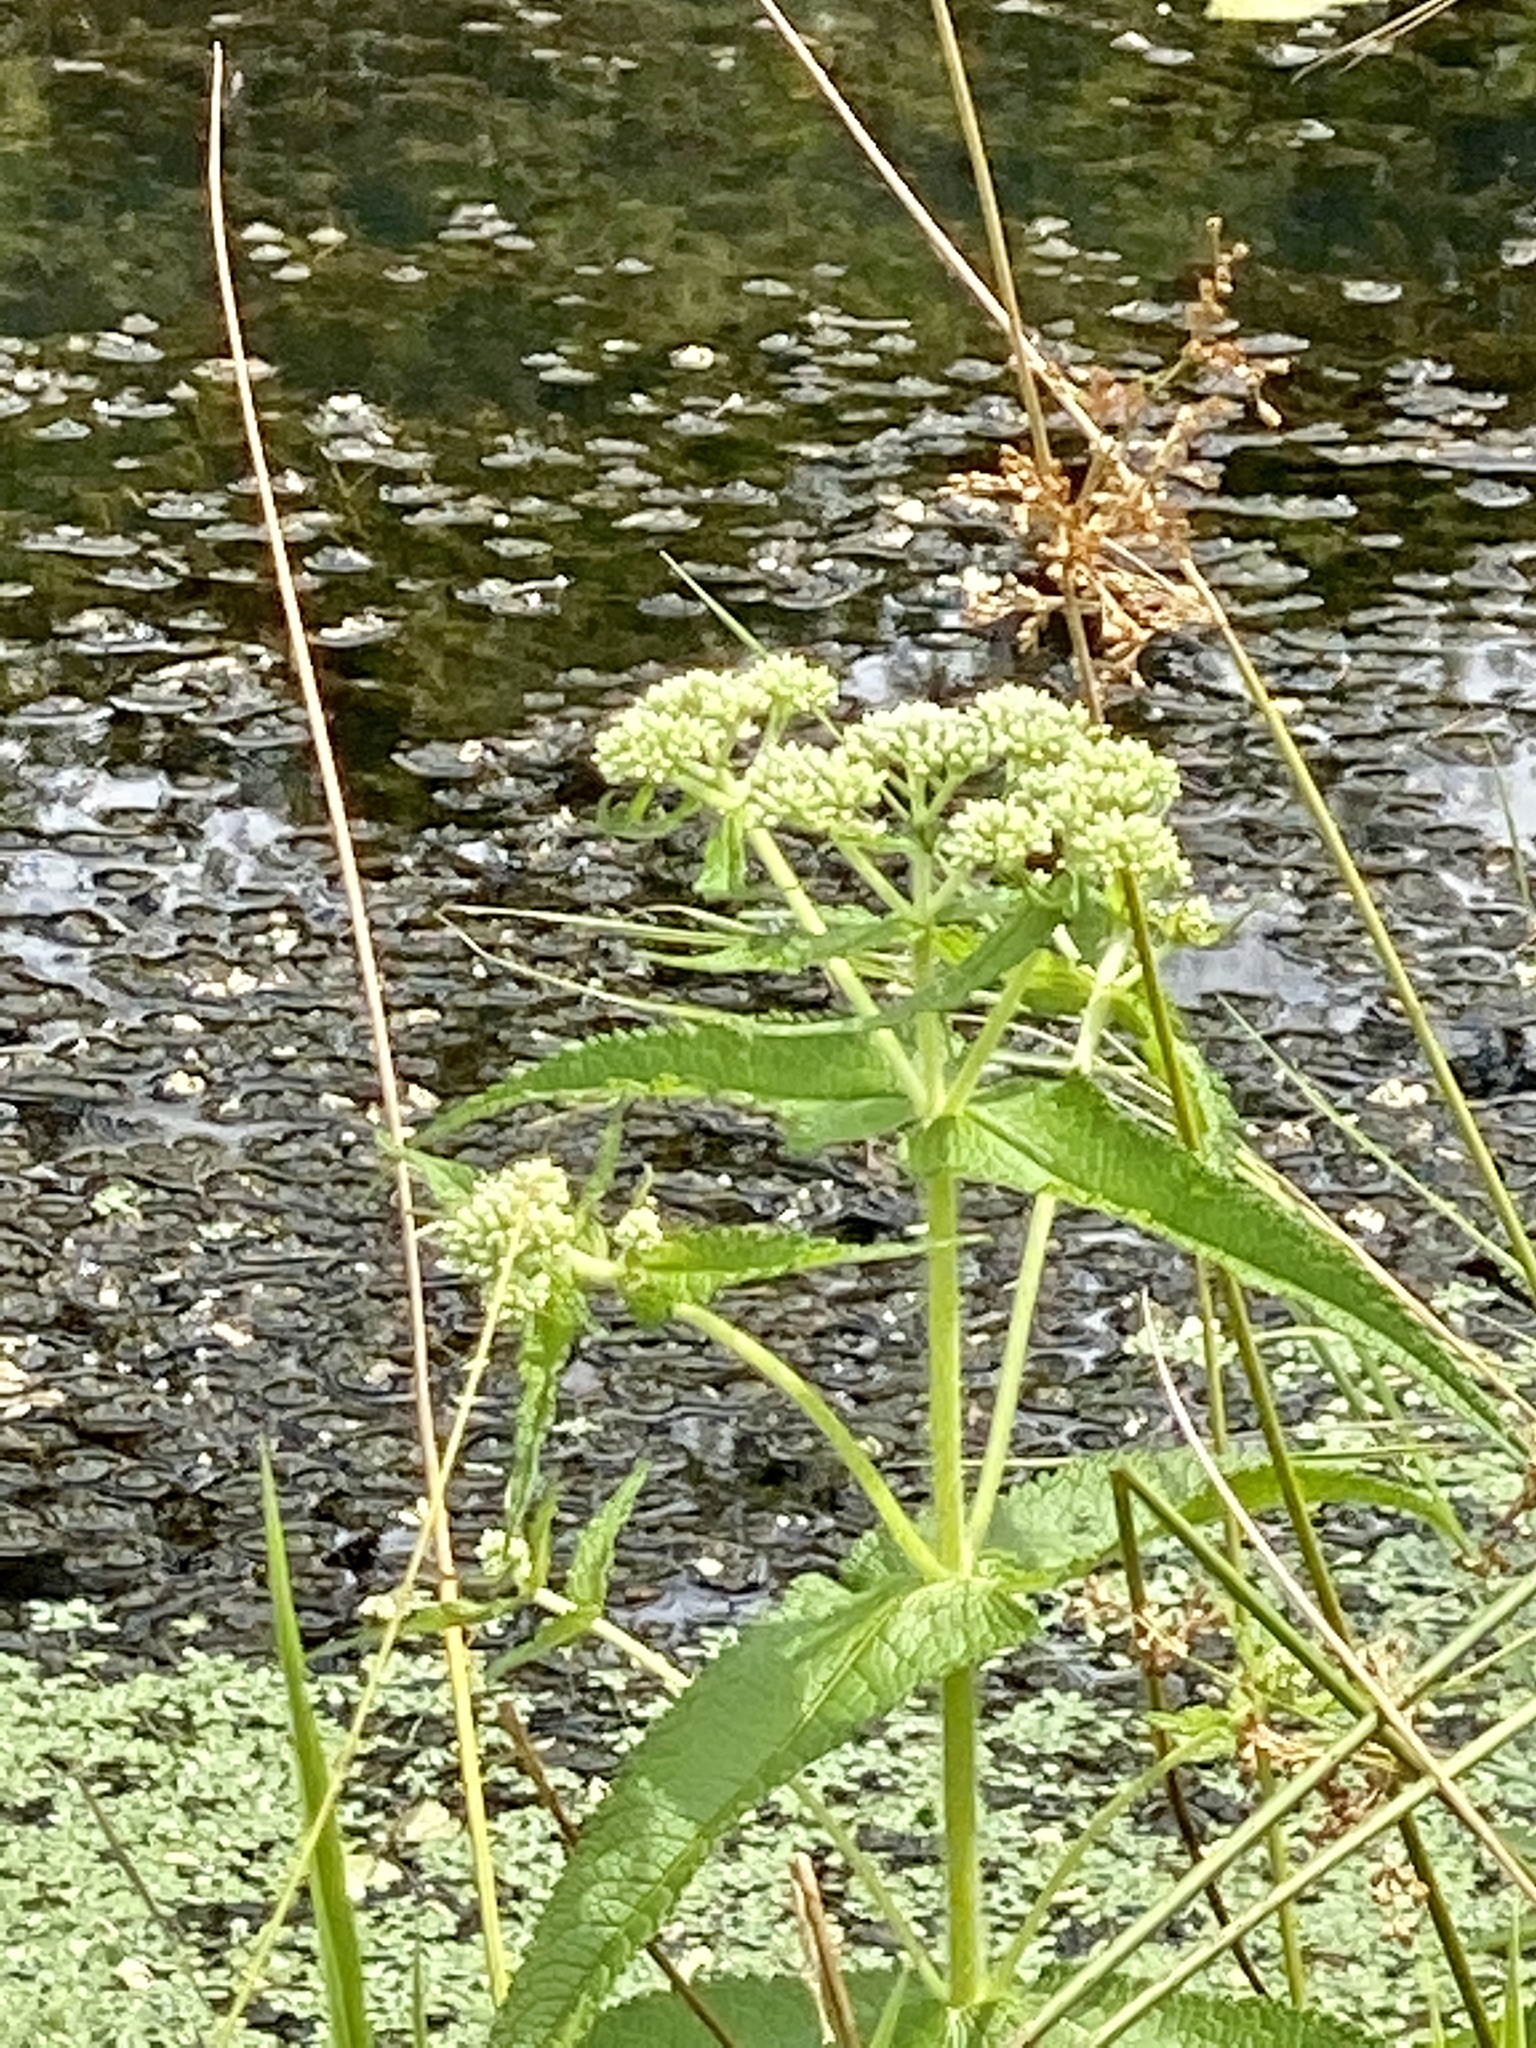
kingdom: Plantae
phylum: Tracheophyta
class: Magnoliopsida
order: Asterales
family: Asteraceae
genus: Eupatorium
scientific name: Eupatorium perfoliatum
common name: Boneset
